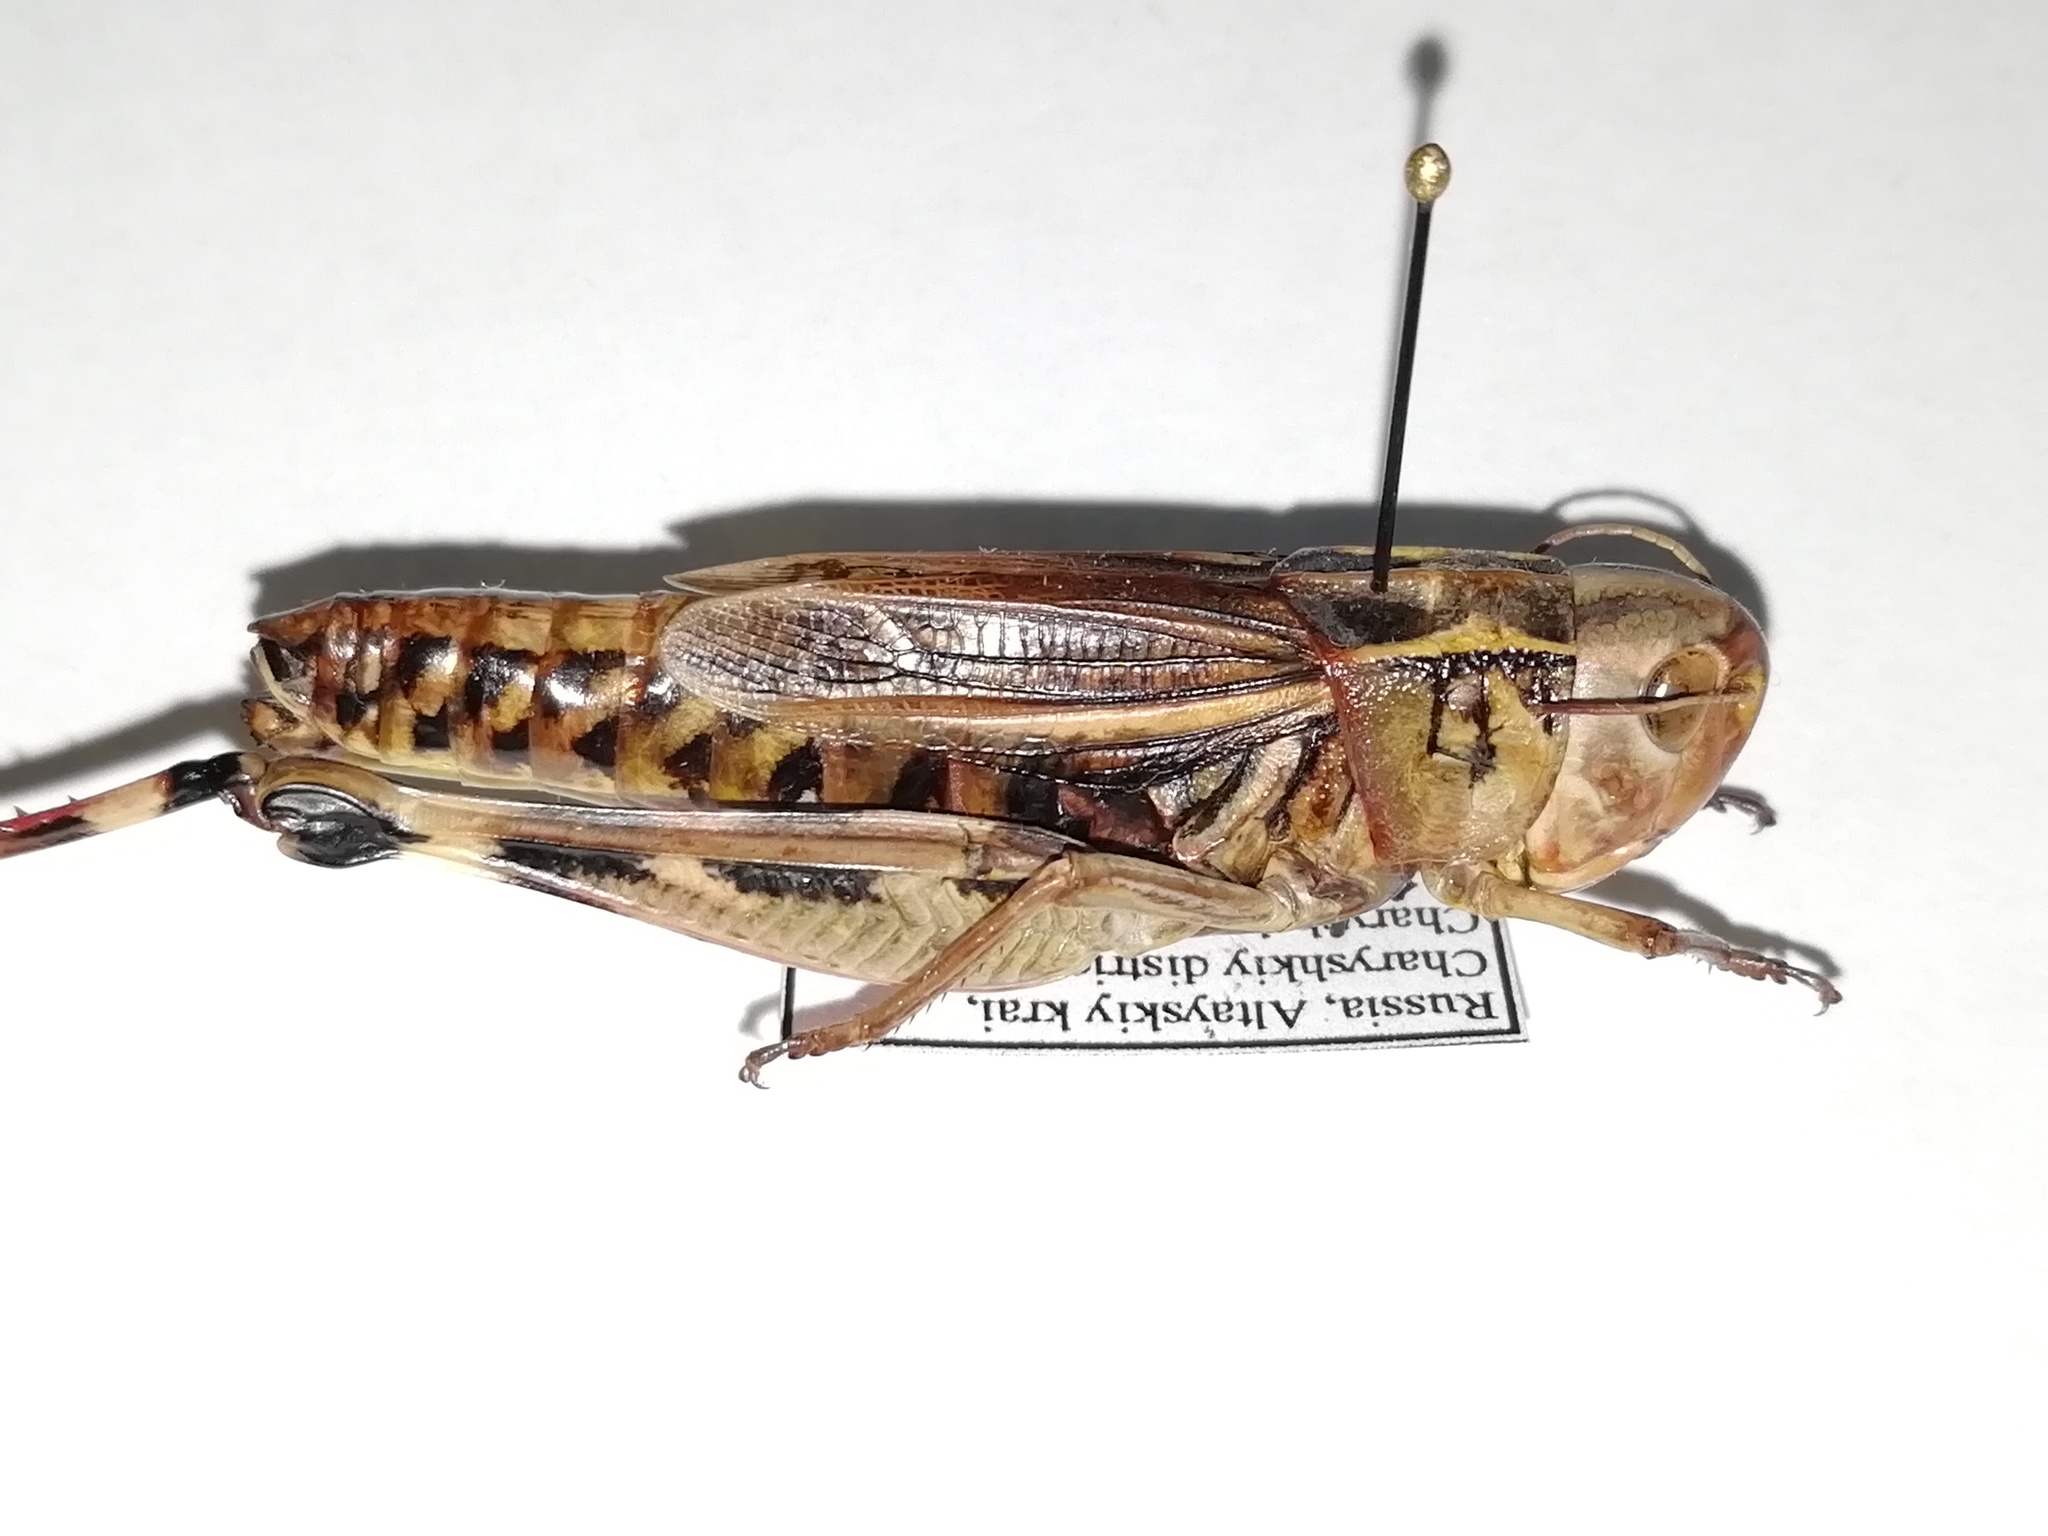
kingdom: Animalia
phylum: Arthropoda
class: Insecta
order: Orthoptera
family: Acrididae
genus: Arcyptera
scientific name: Arcyptera fusca
